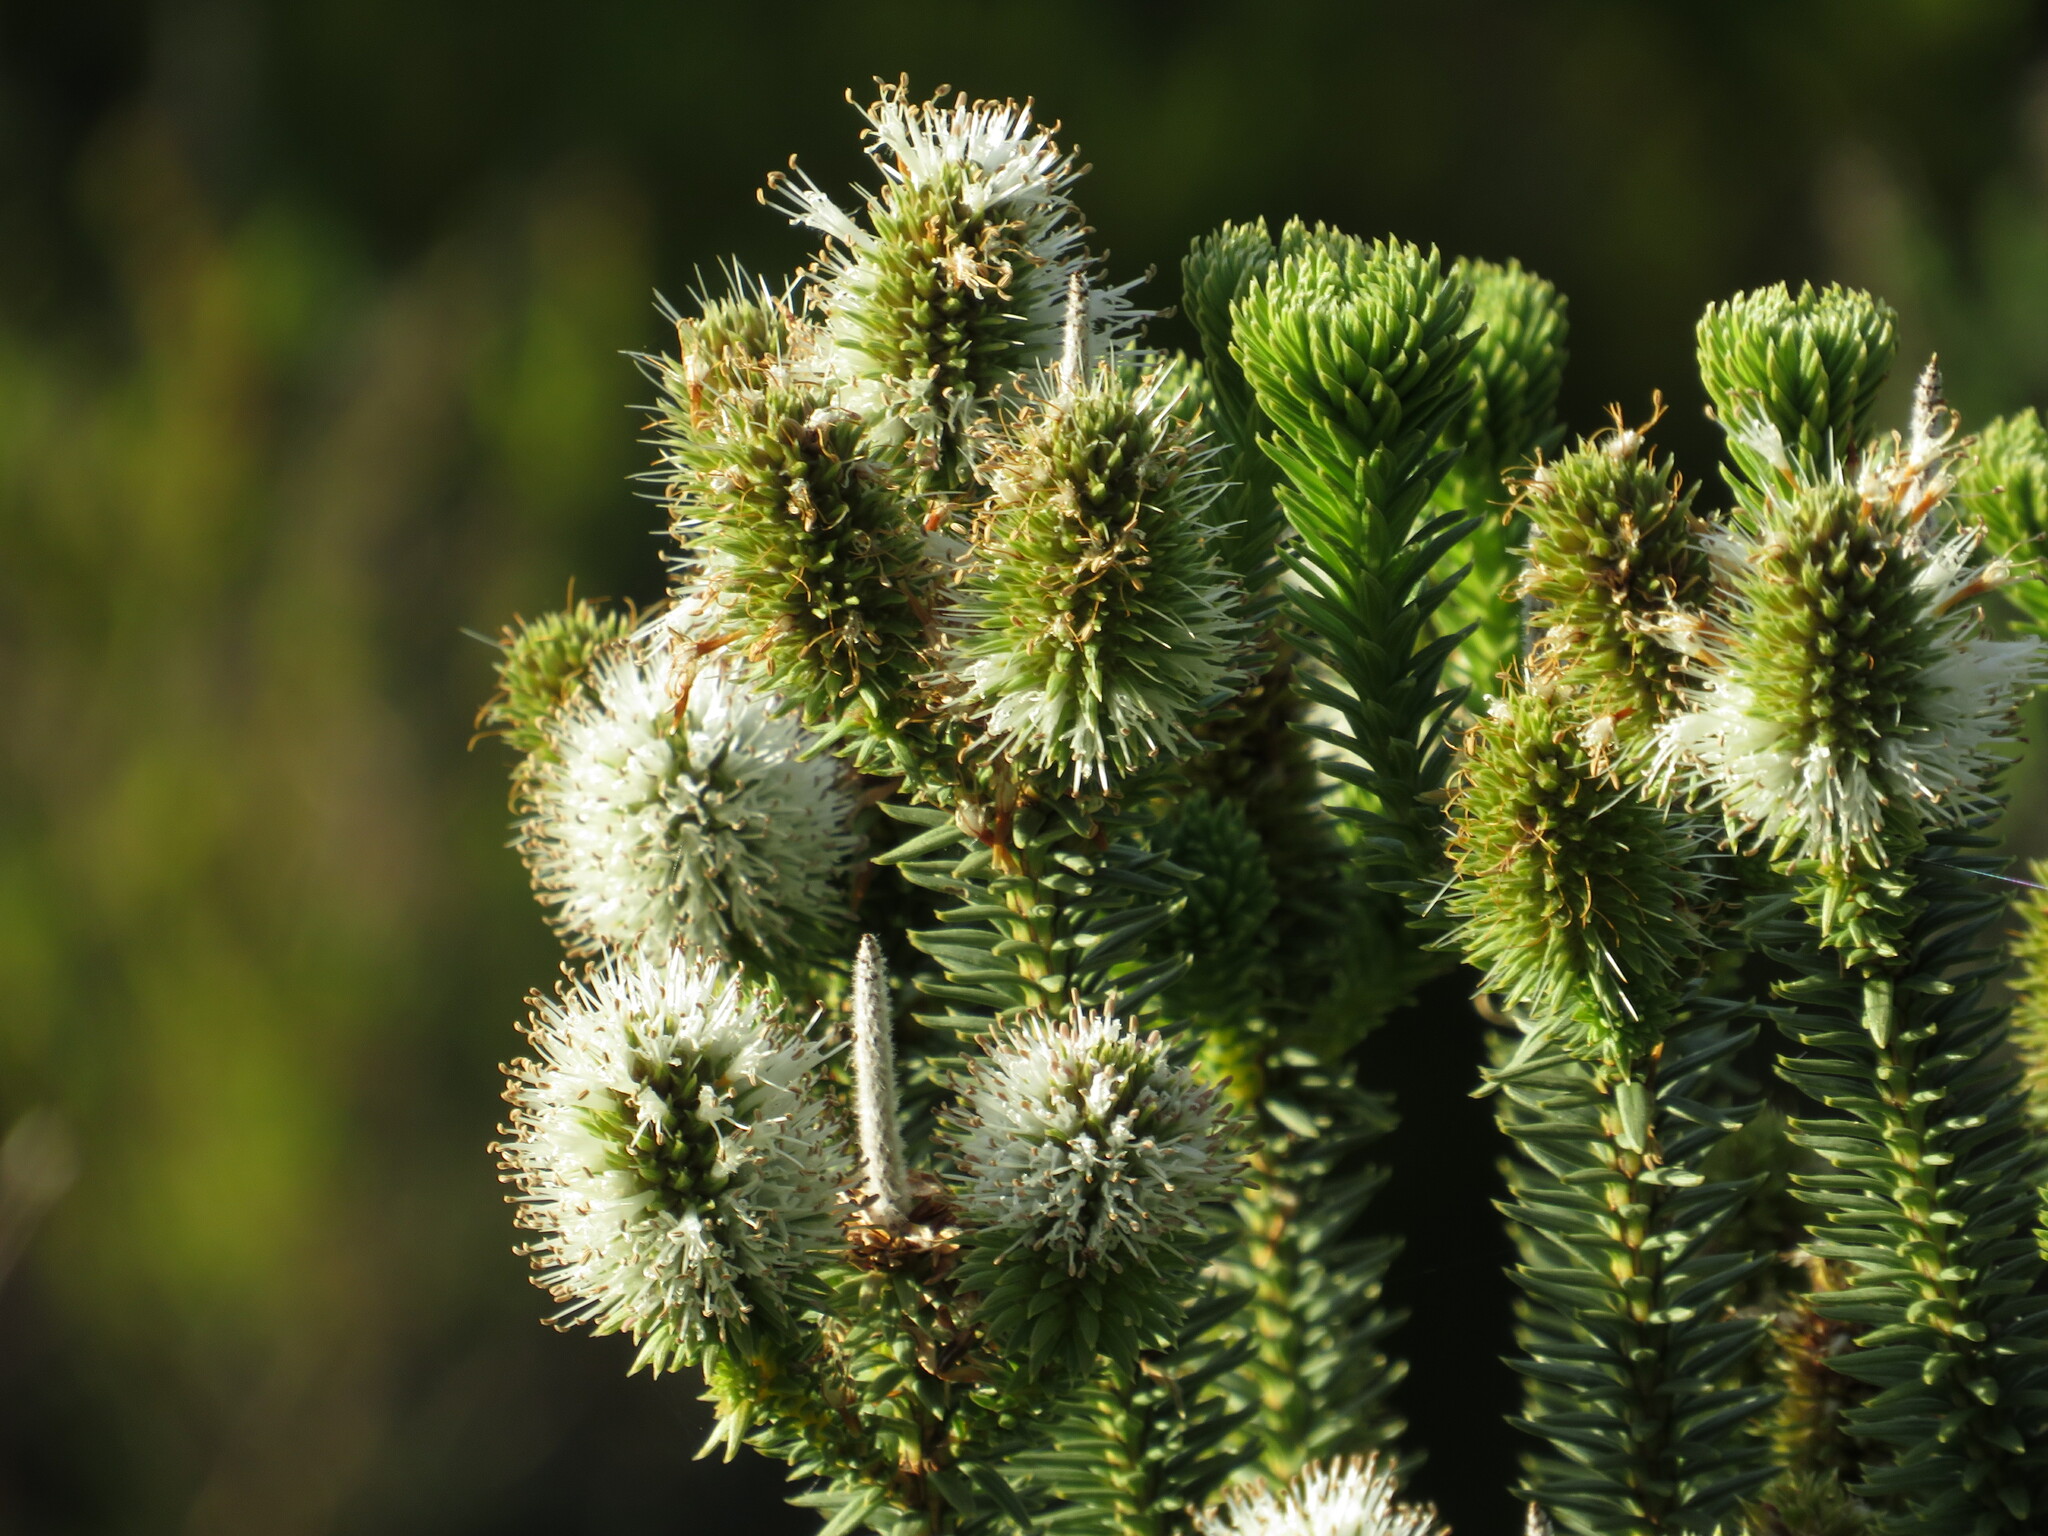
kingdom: Plantae
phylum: Tracheophyta
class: Magnoliopsida
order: Lamiales
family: Stilbaceae
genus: Stilbe
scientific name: Stilbe vestita
